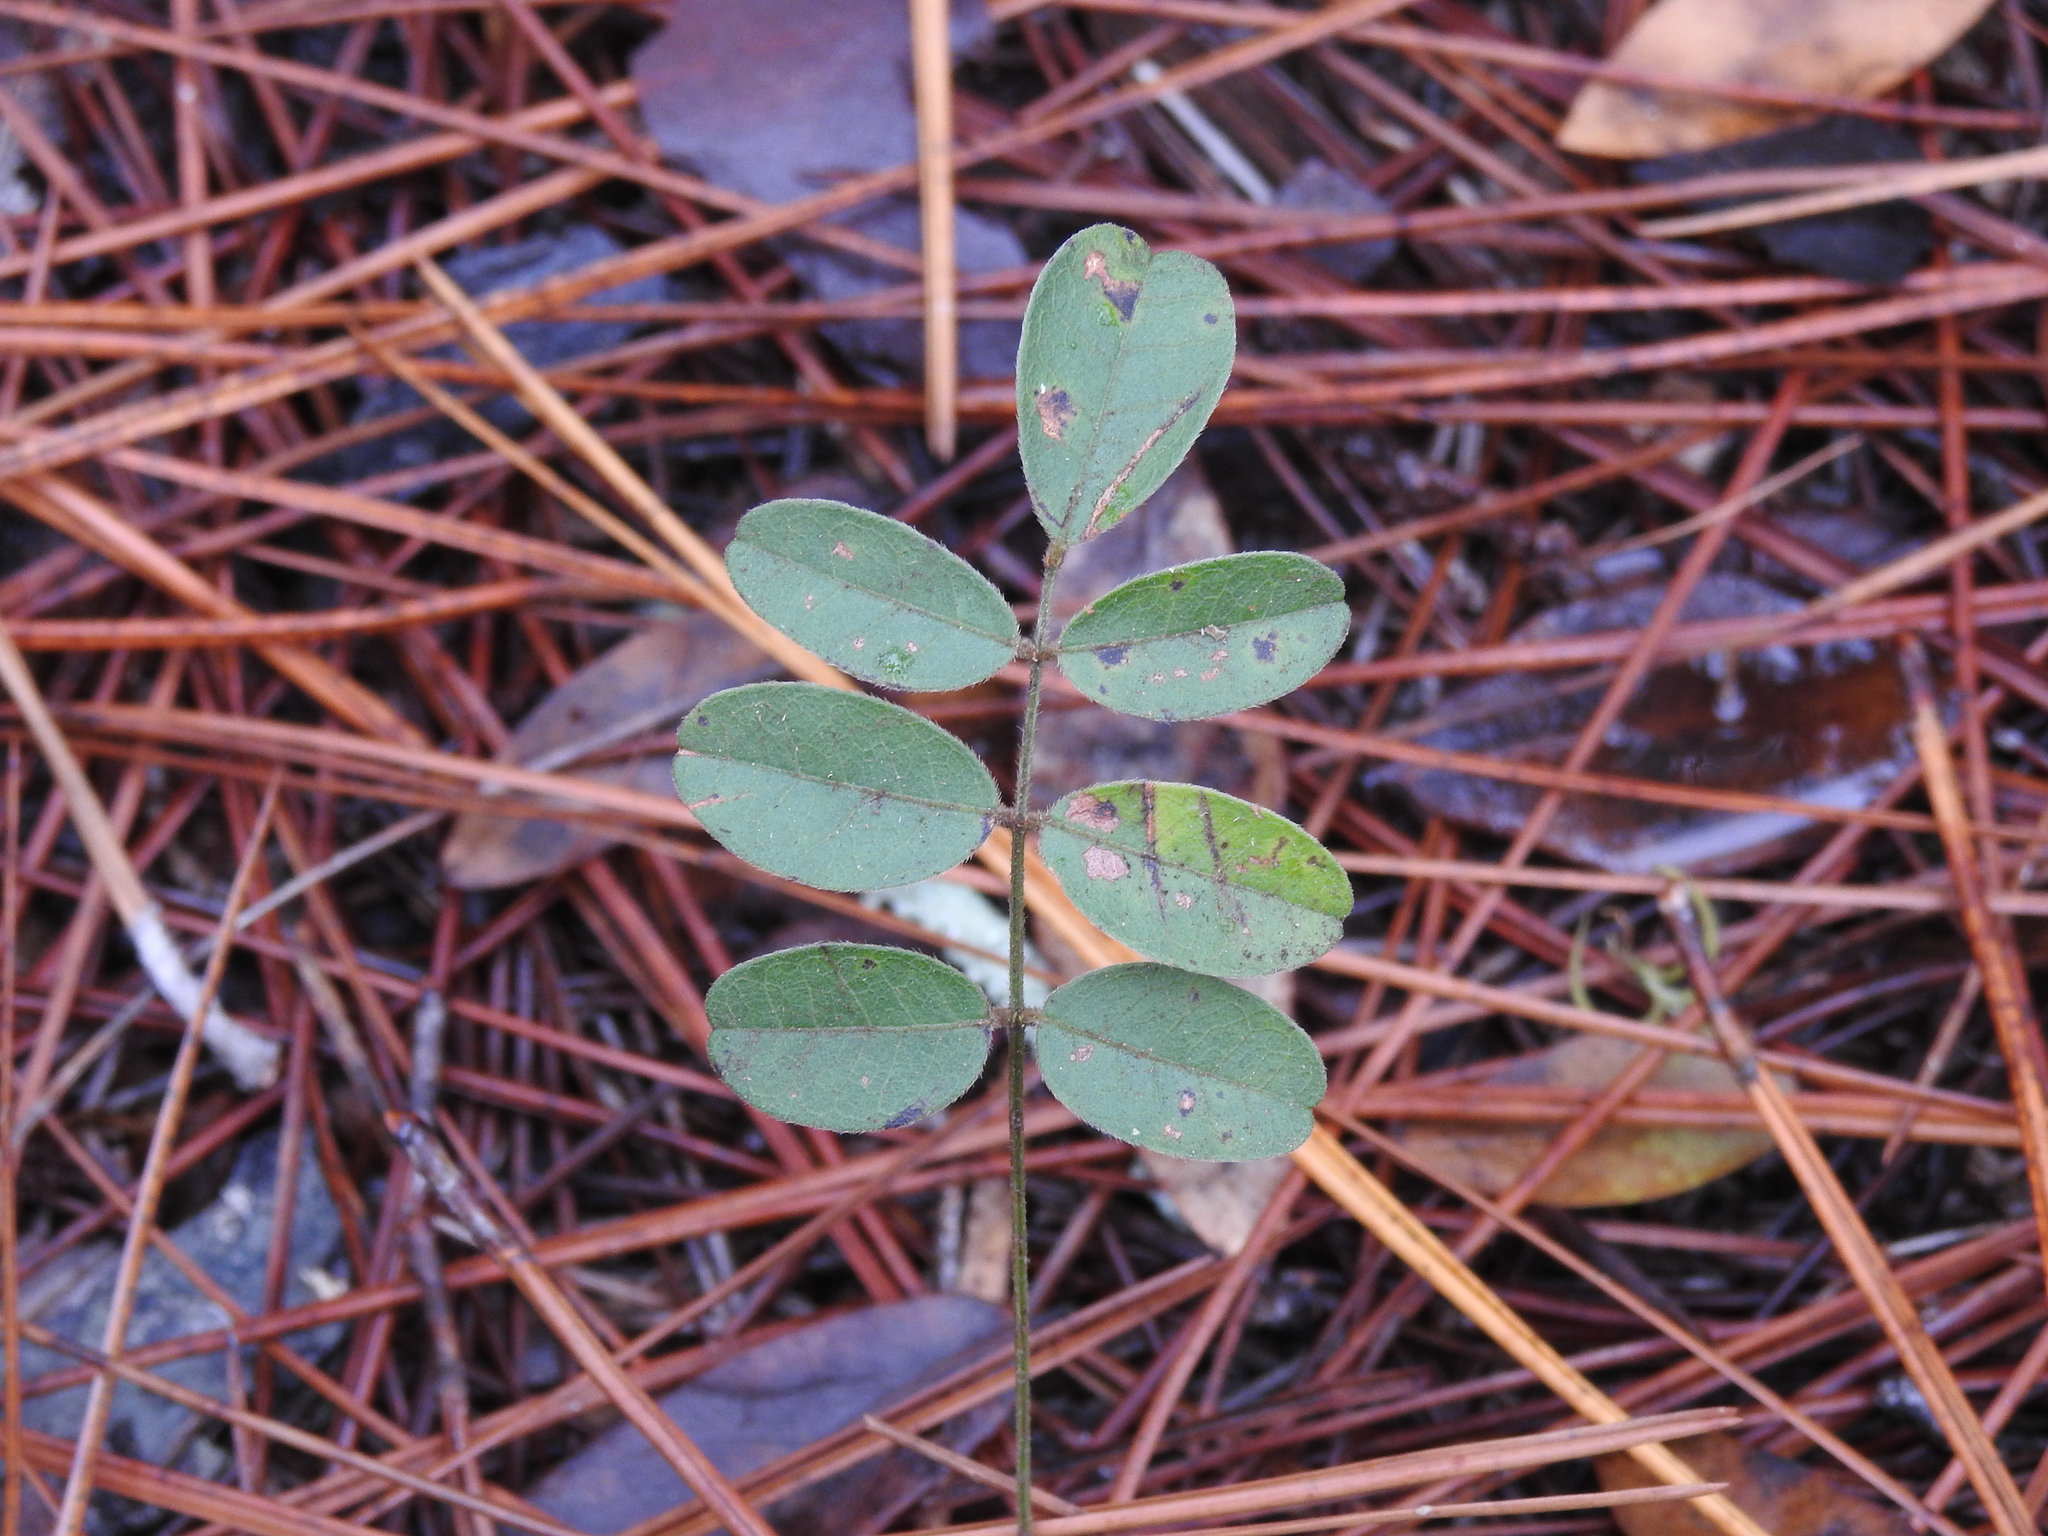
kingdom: Plantae
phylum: Tracheophyta
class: Magnoliopsida
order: Fabales
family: Fabaceae
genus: Galactia
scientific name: Galactia elliottii
